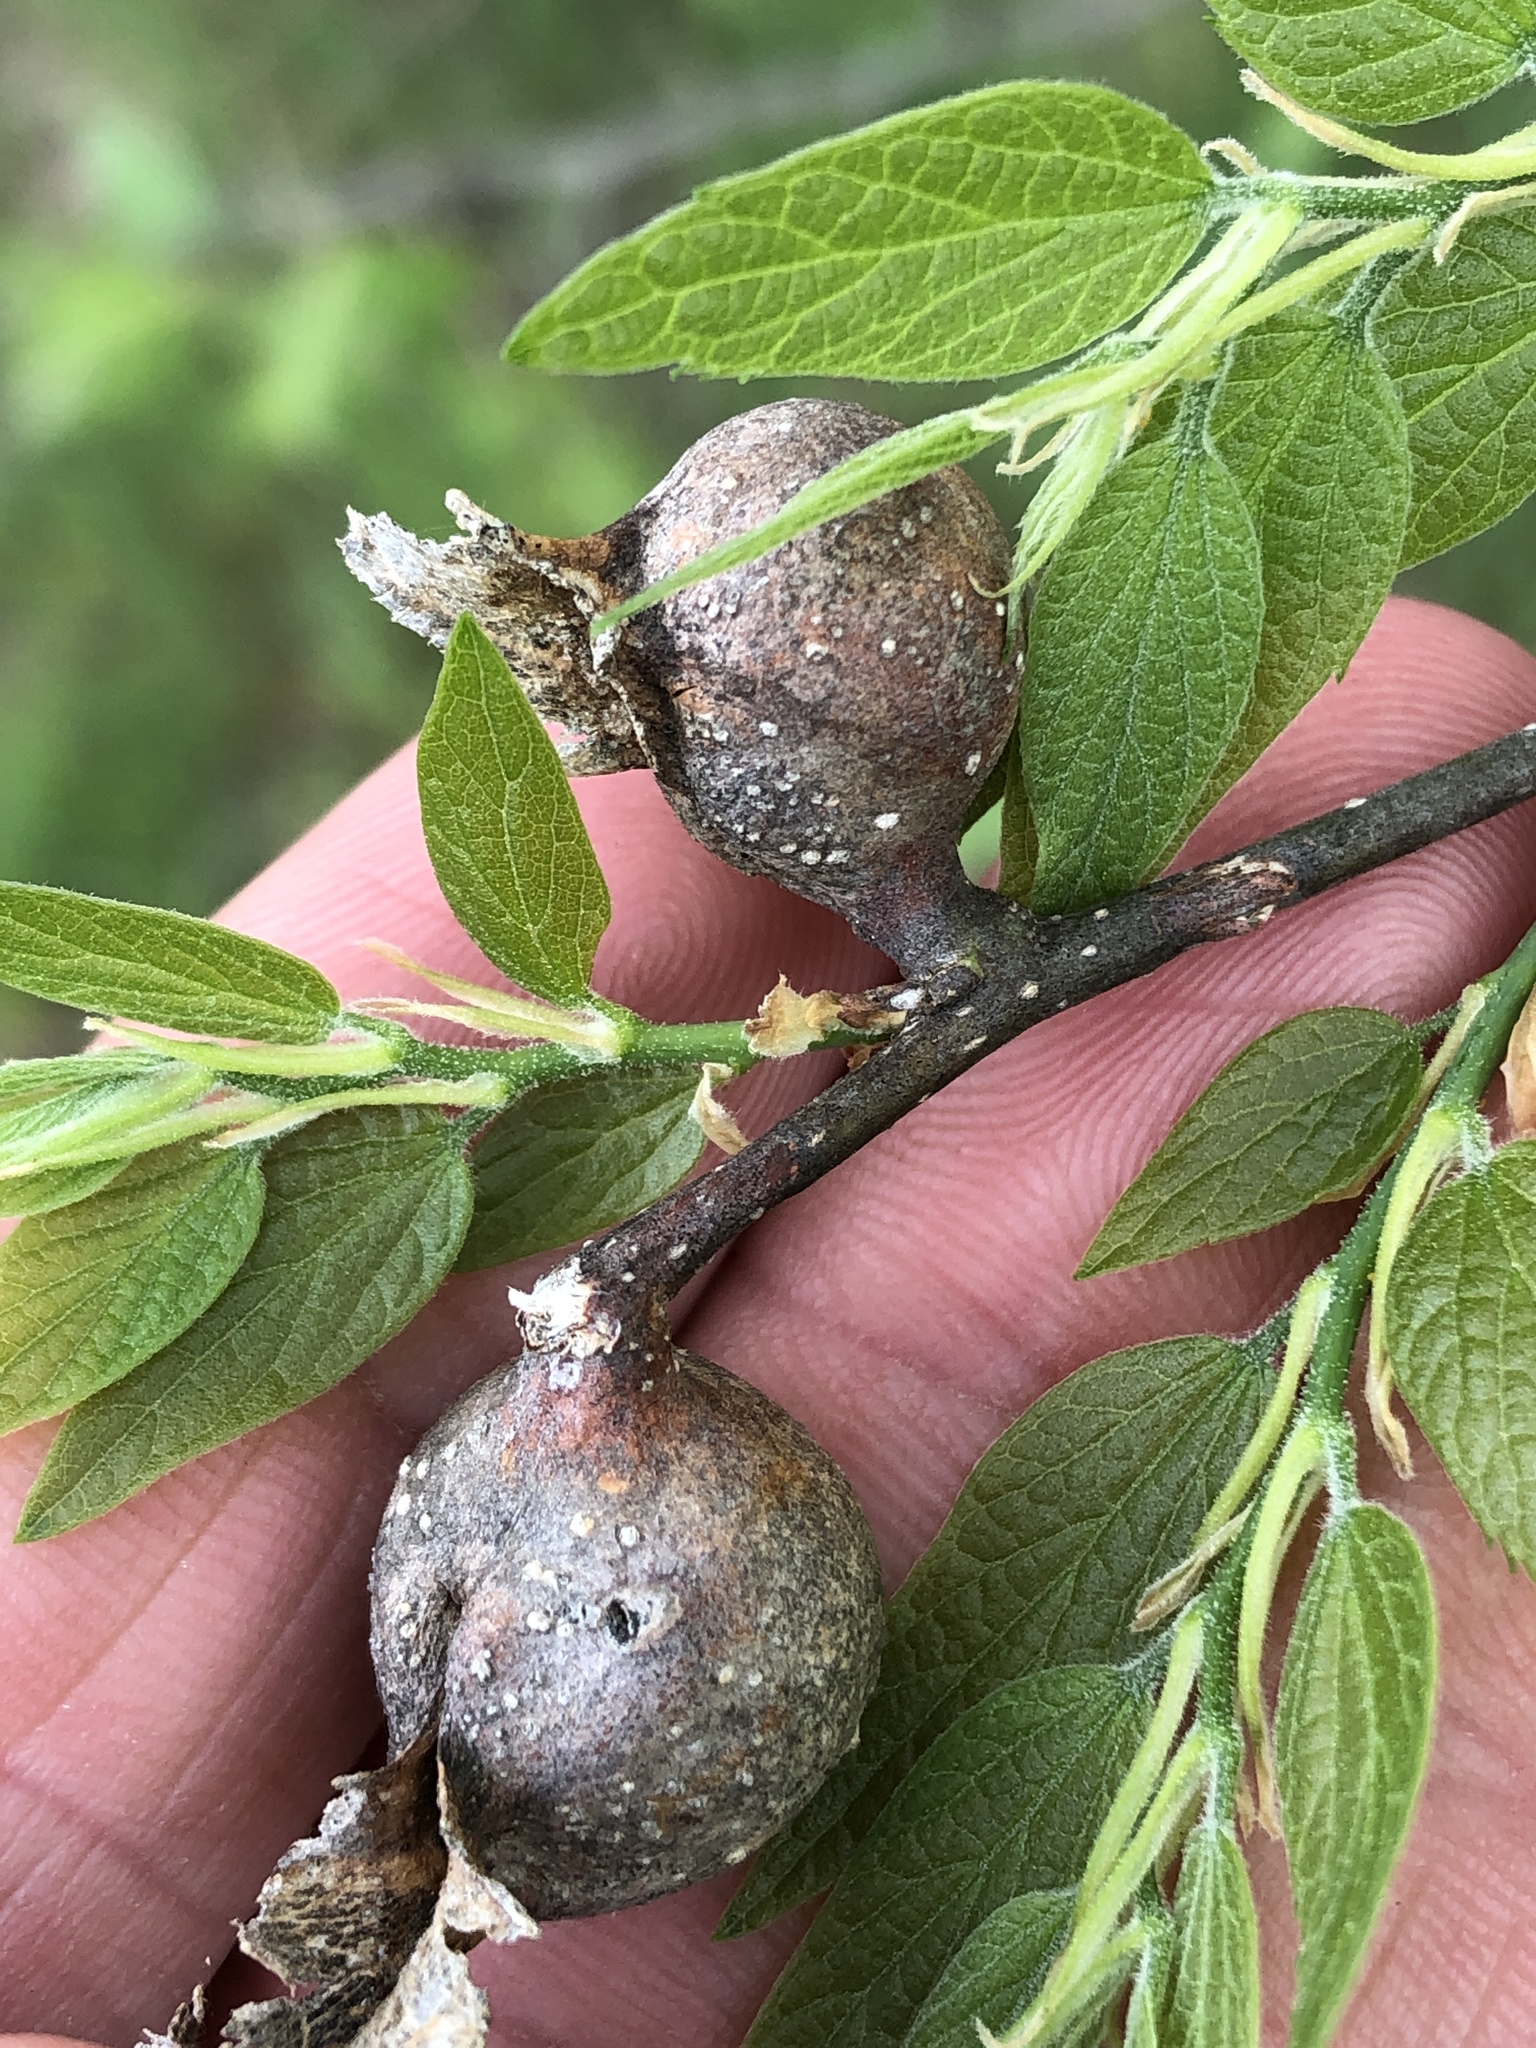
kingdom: Animalia
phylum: Arthropoda
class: Insecta
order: Hemiptera
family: Aphalaridae
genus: Pachypsylla
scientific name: Pachypsylla venusta
